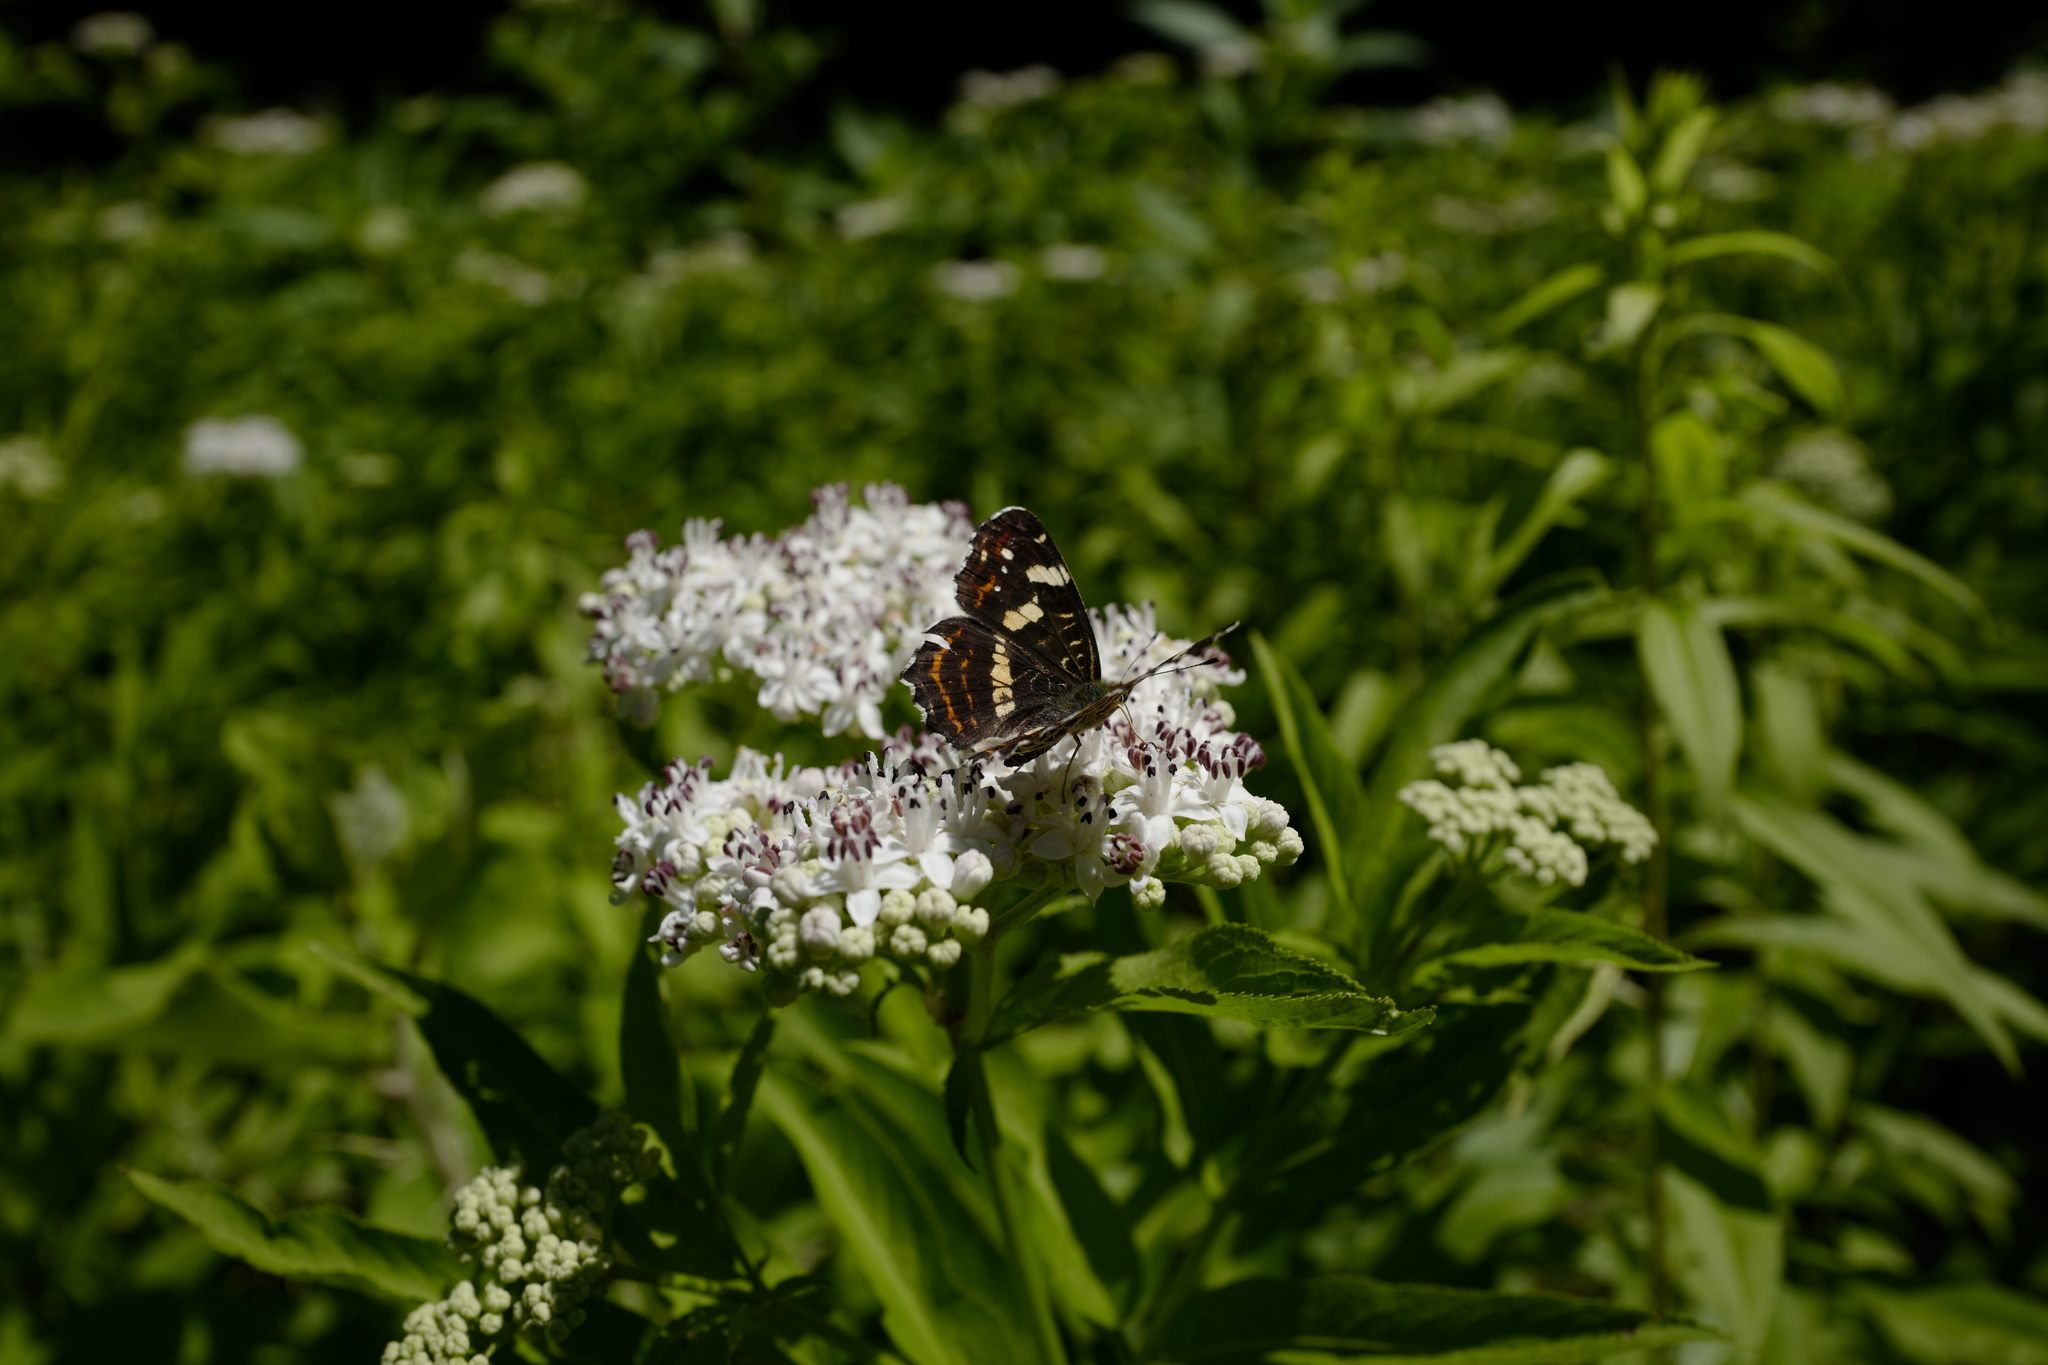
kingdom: Animalia
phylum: Arthropoda
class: Insecta
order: Lepidoptera
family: Nymphalidae
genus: Araschnia
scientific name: Araschnia levana
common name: Map butterfly
